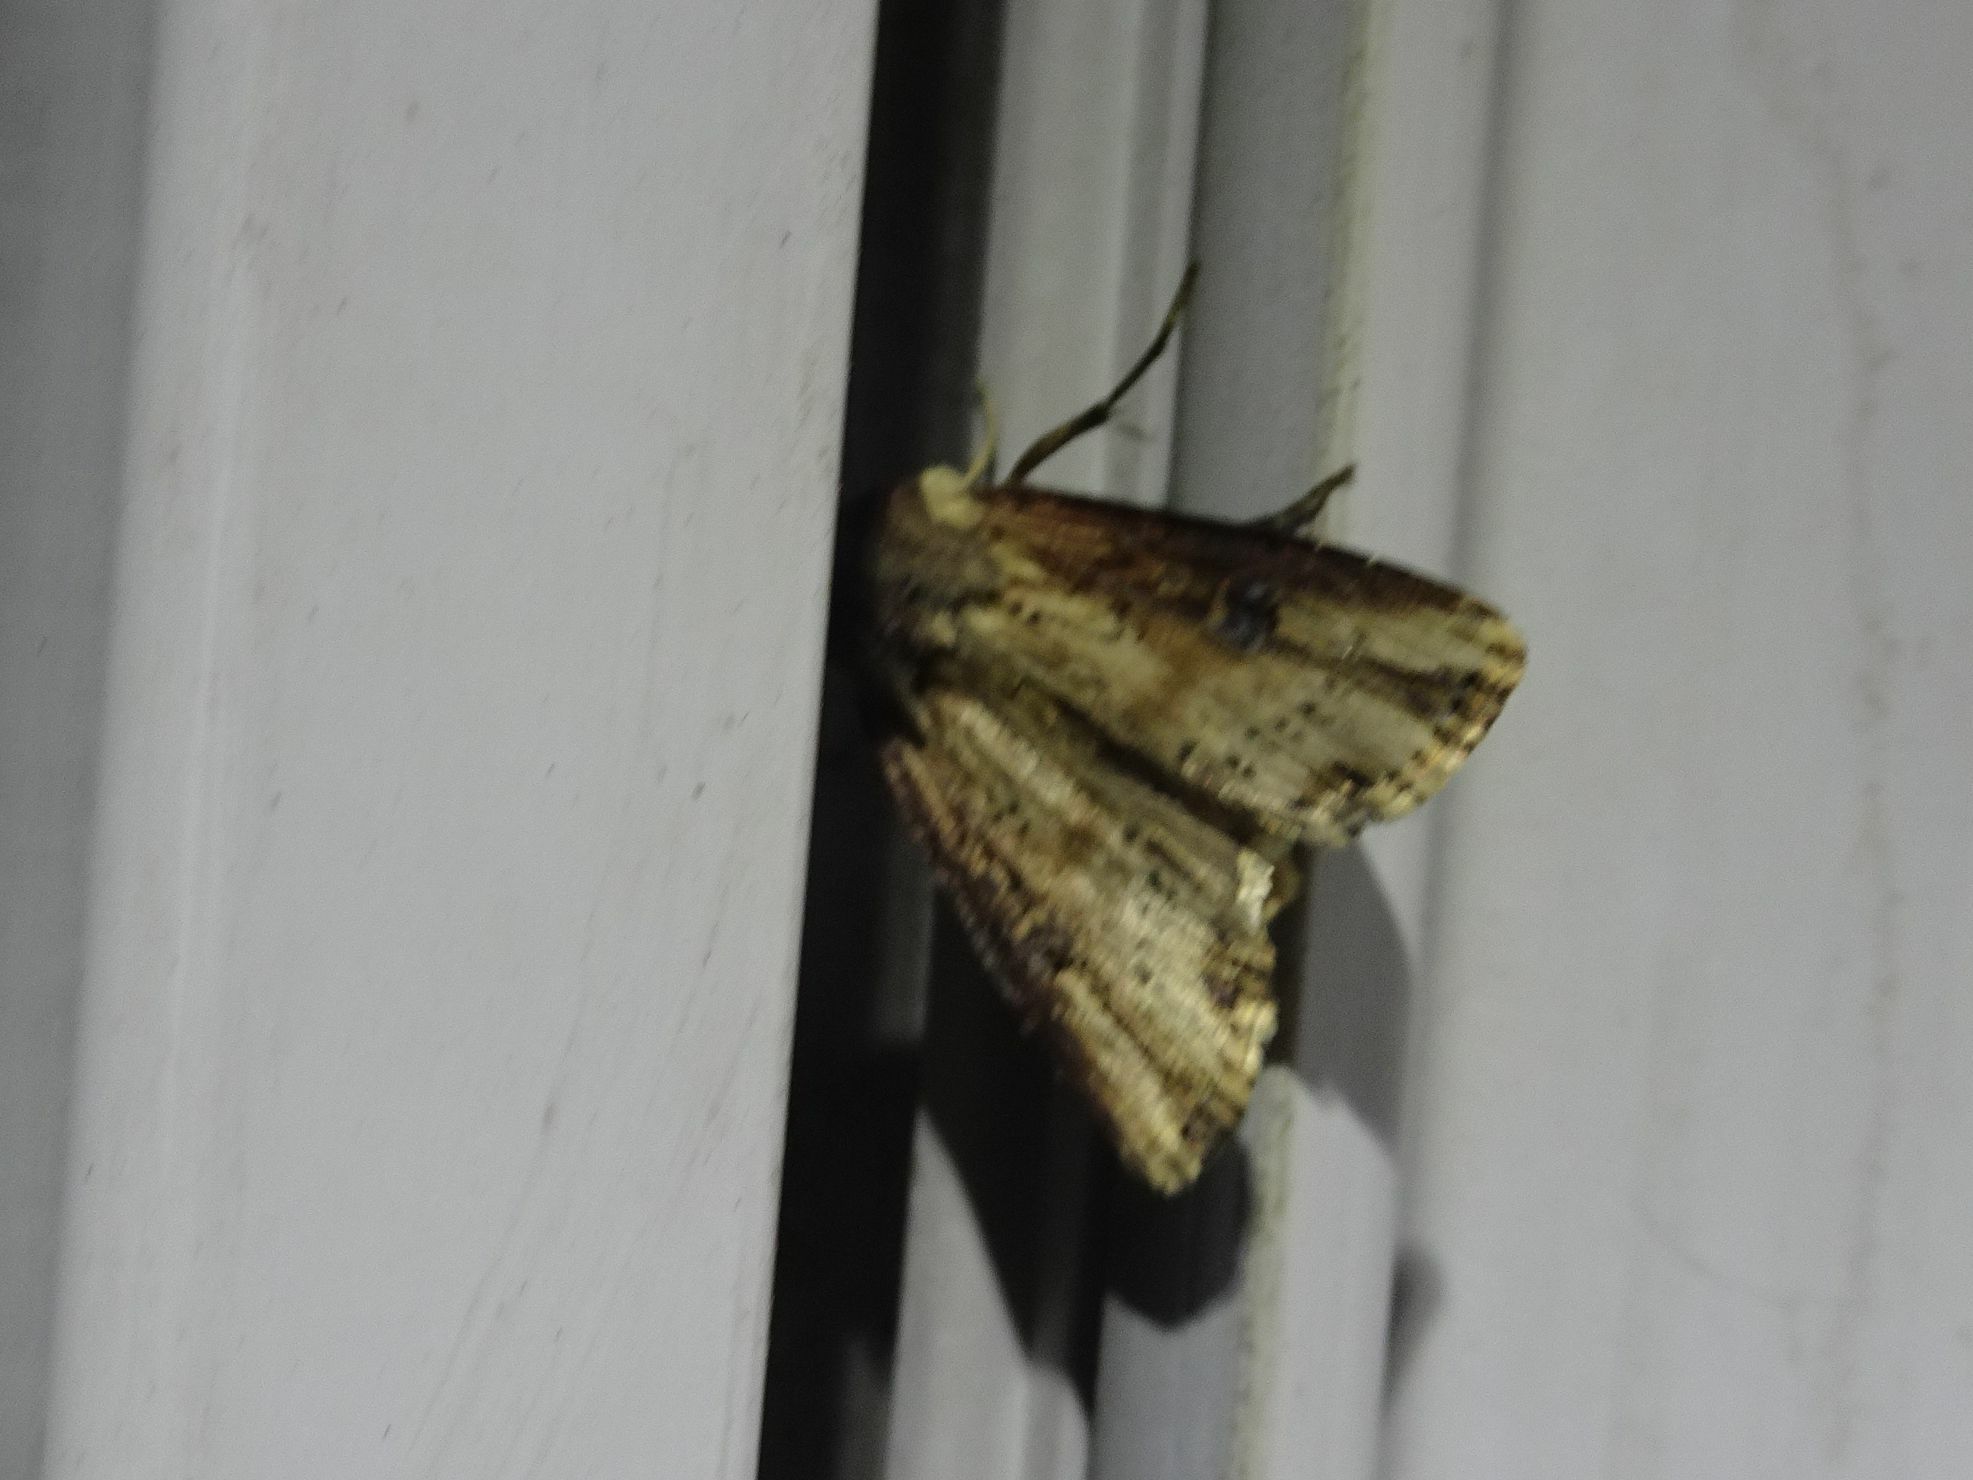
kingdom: Animalia
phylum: Arthropoda
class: Insecta
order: Lepidoptera
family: Noctuidae
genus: Axylia
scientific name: Axylia putris
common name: Flame
